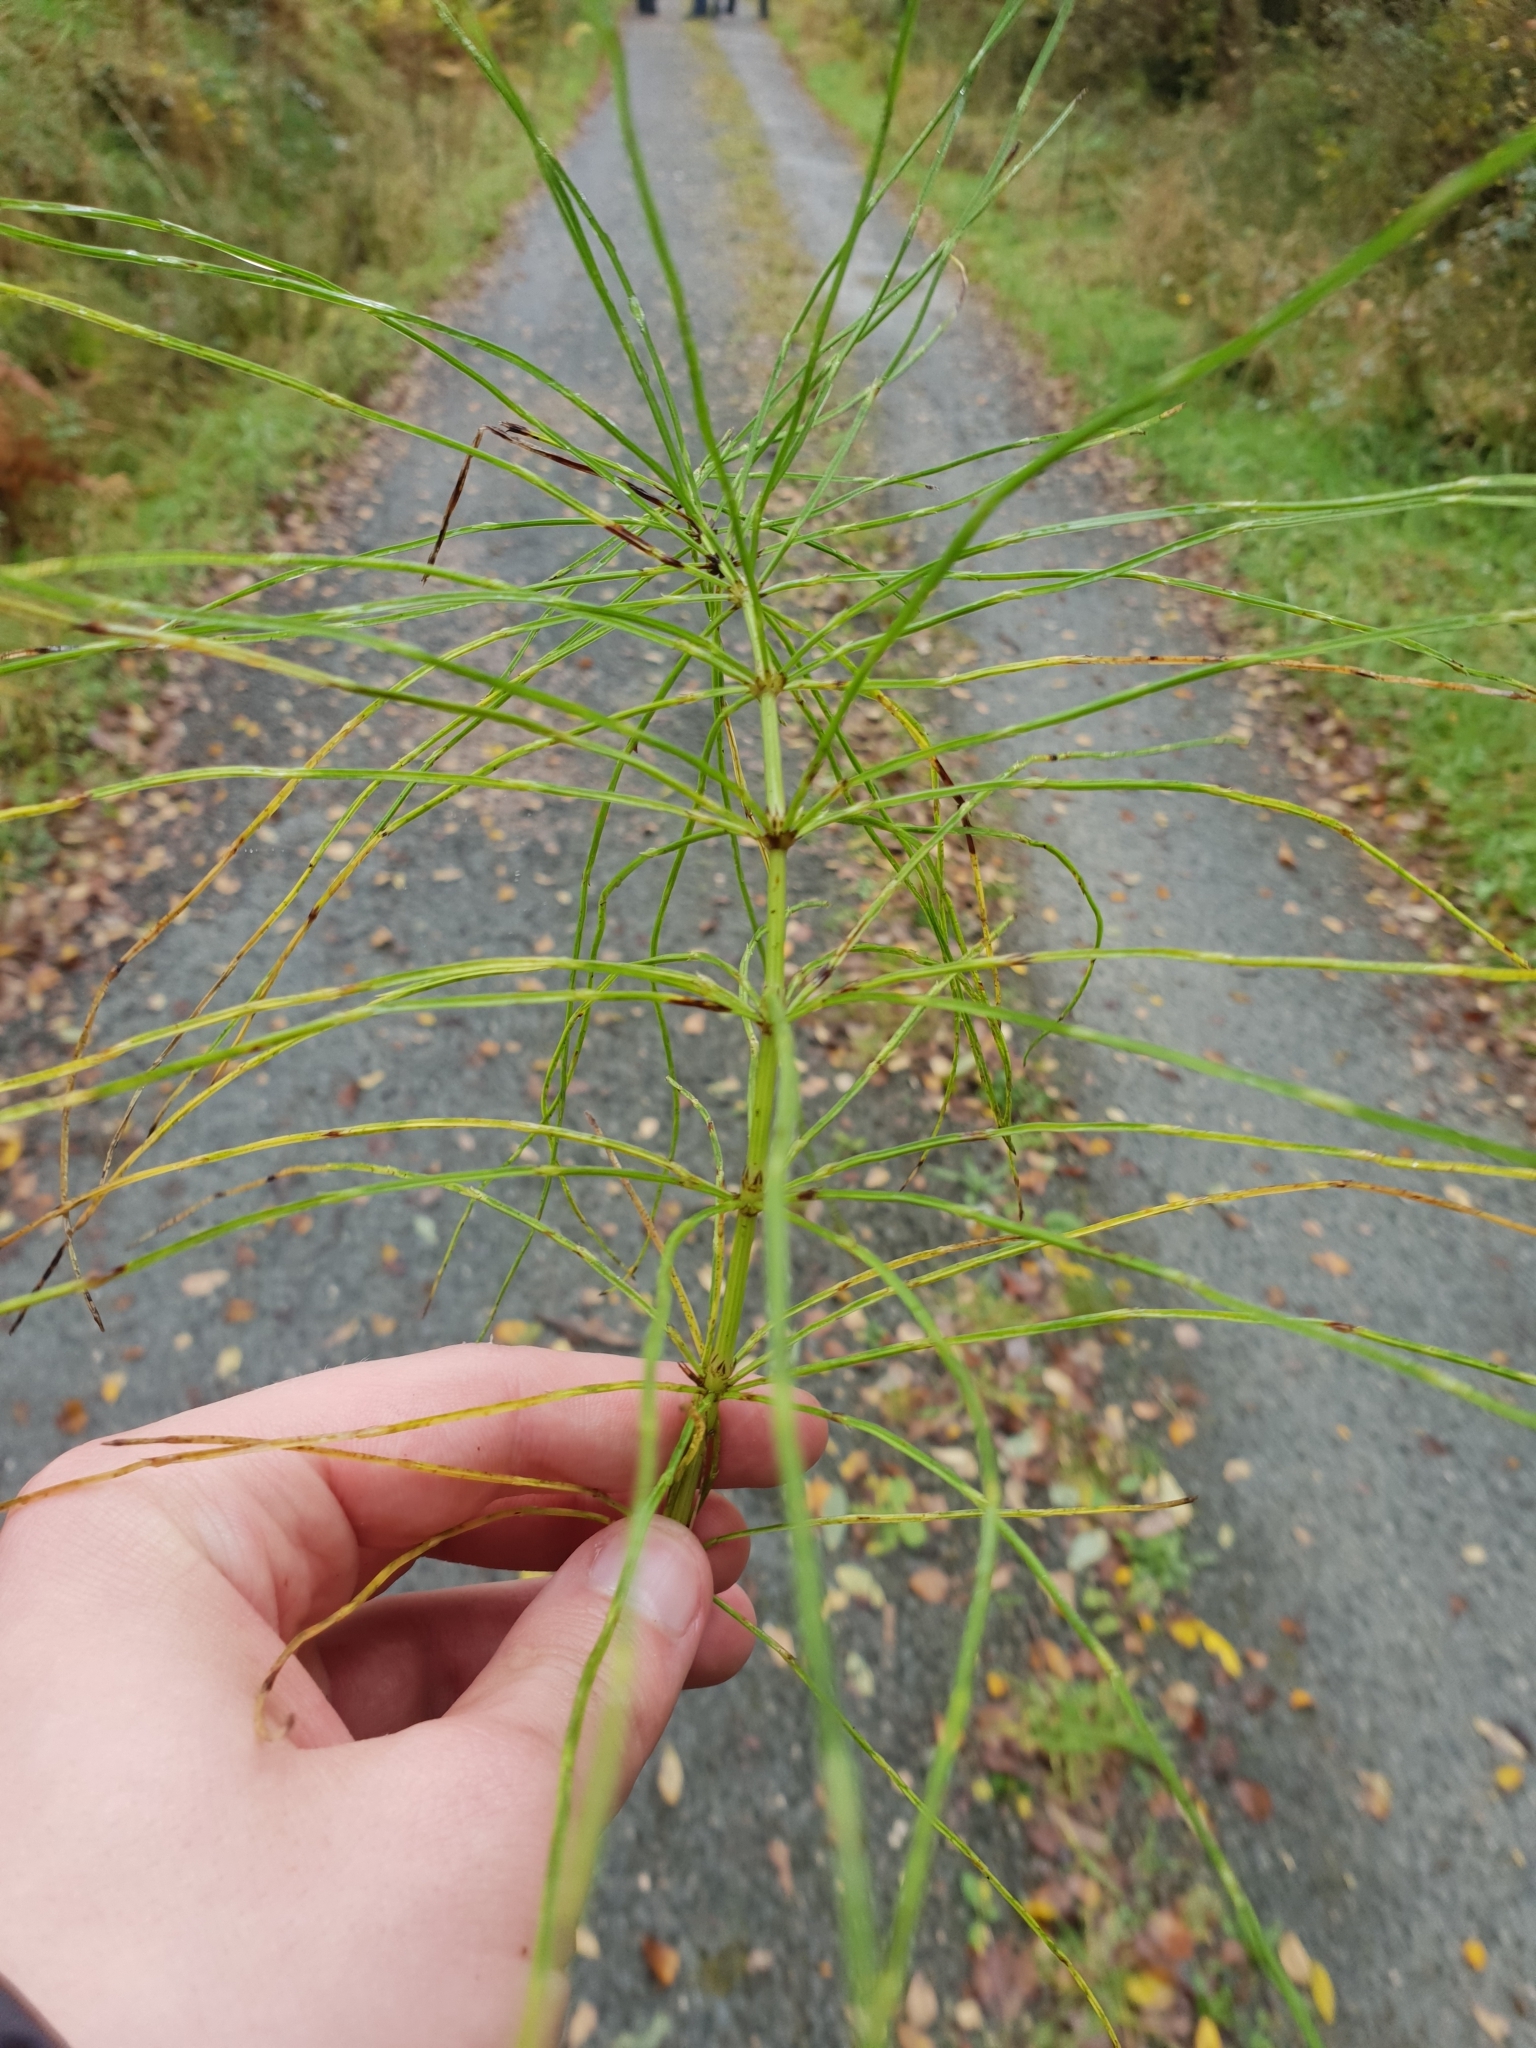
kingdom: Plantae
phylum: Tracheophyta
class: Polypodiopsida
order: Equisetales
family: Equisetaceae
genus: Equisetum
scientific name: Equisetum arvense
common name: Field horsetail
